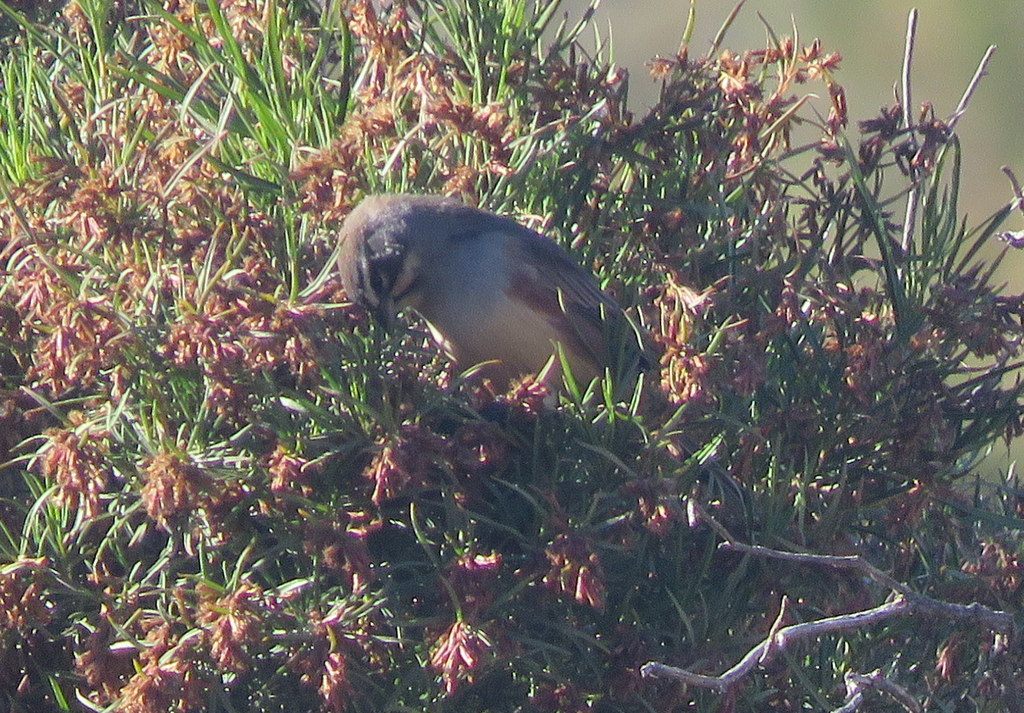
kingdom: Animalia
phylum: Chordata
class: Aves
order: Passeriformes
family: Thraupidae
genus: Poospizopsis
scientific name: Poospizopsis hypocondria
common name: Rufous-sided warbling-finch
